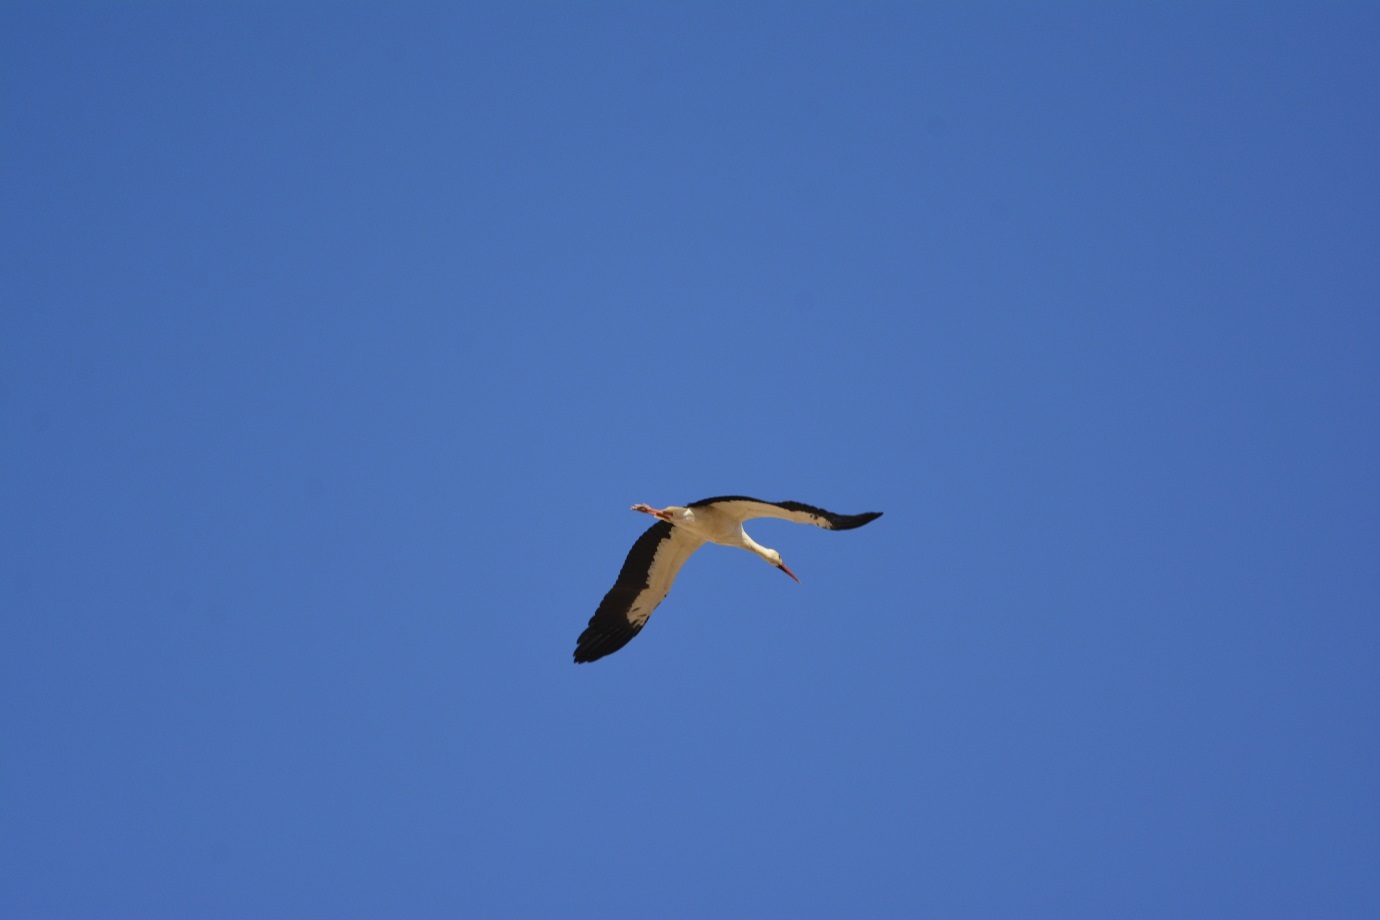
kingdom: Animalia
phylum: Chordata
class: Aves
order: Ciconiiformes
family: Ciconiidae
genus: Ciconia
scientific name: Ciconia ciconia
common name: White stork
